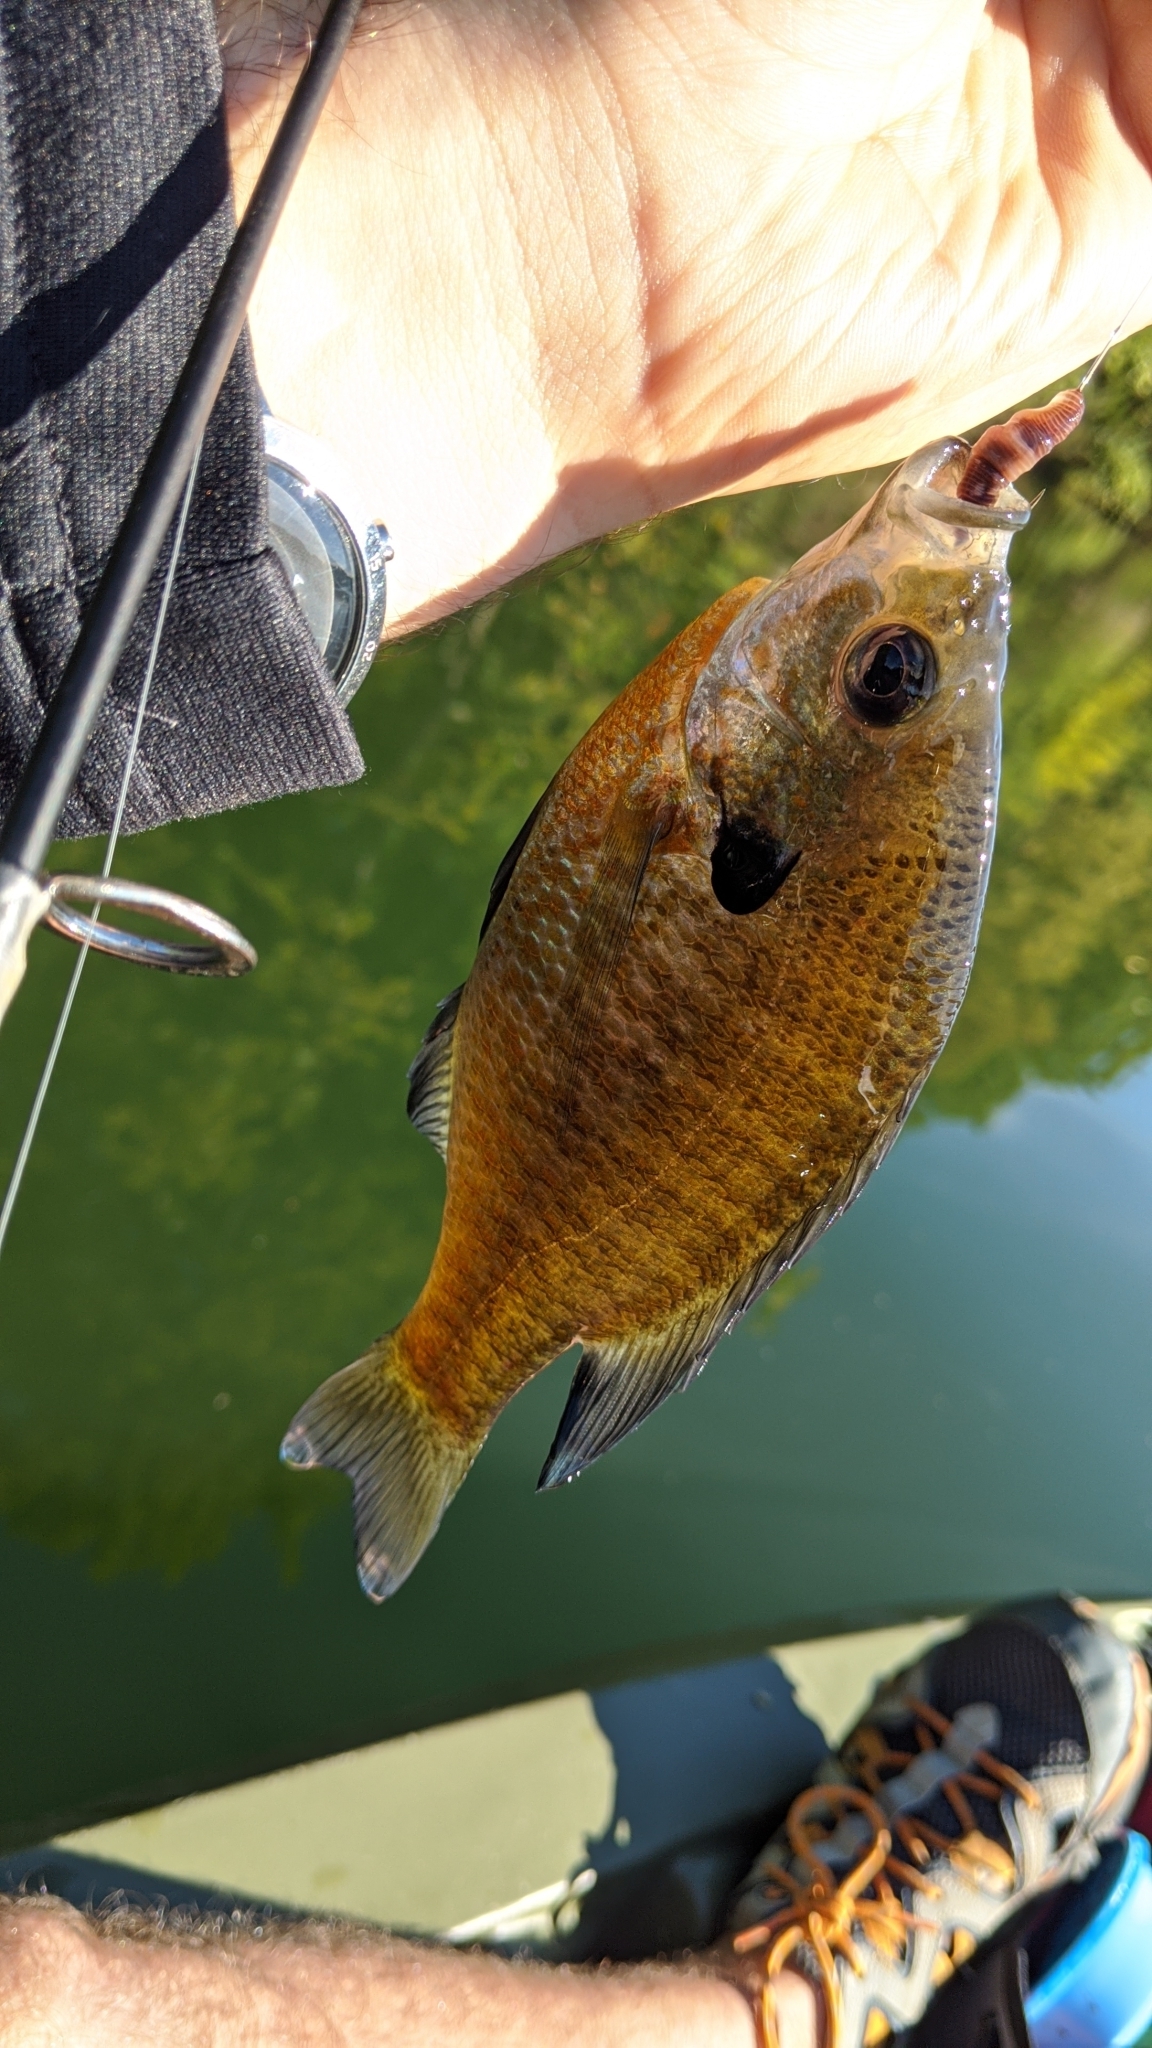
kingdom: Animalia
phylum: Chordata
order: Perciformes
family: Centrarchidae
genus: Lepomis
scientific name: Lepomis macrochirus
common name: Bluegill
